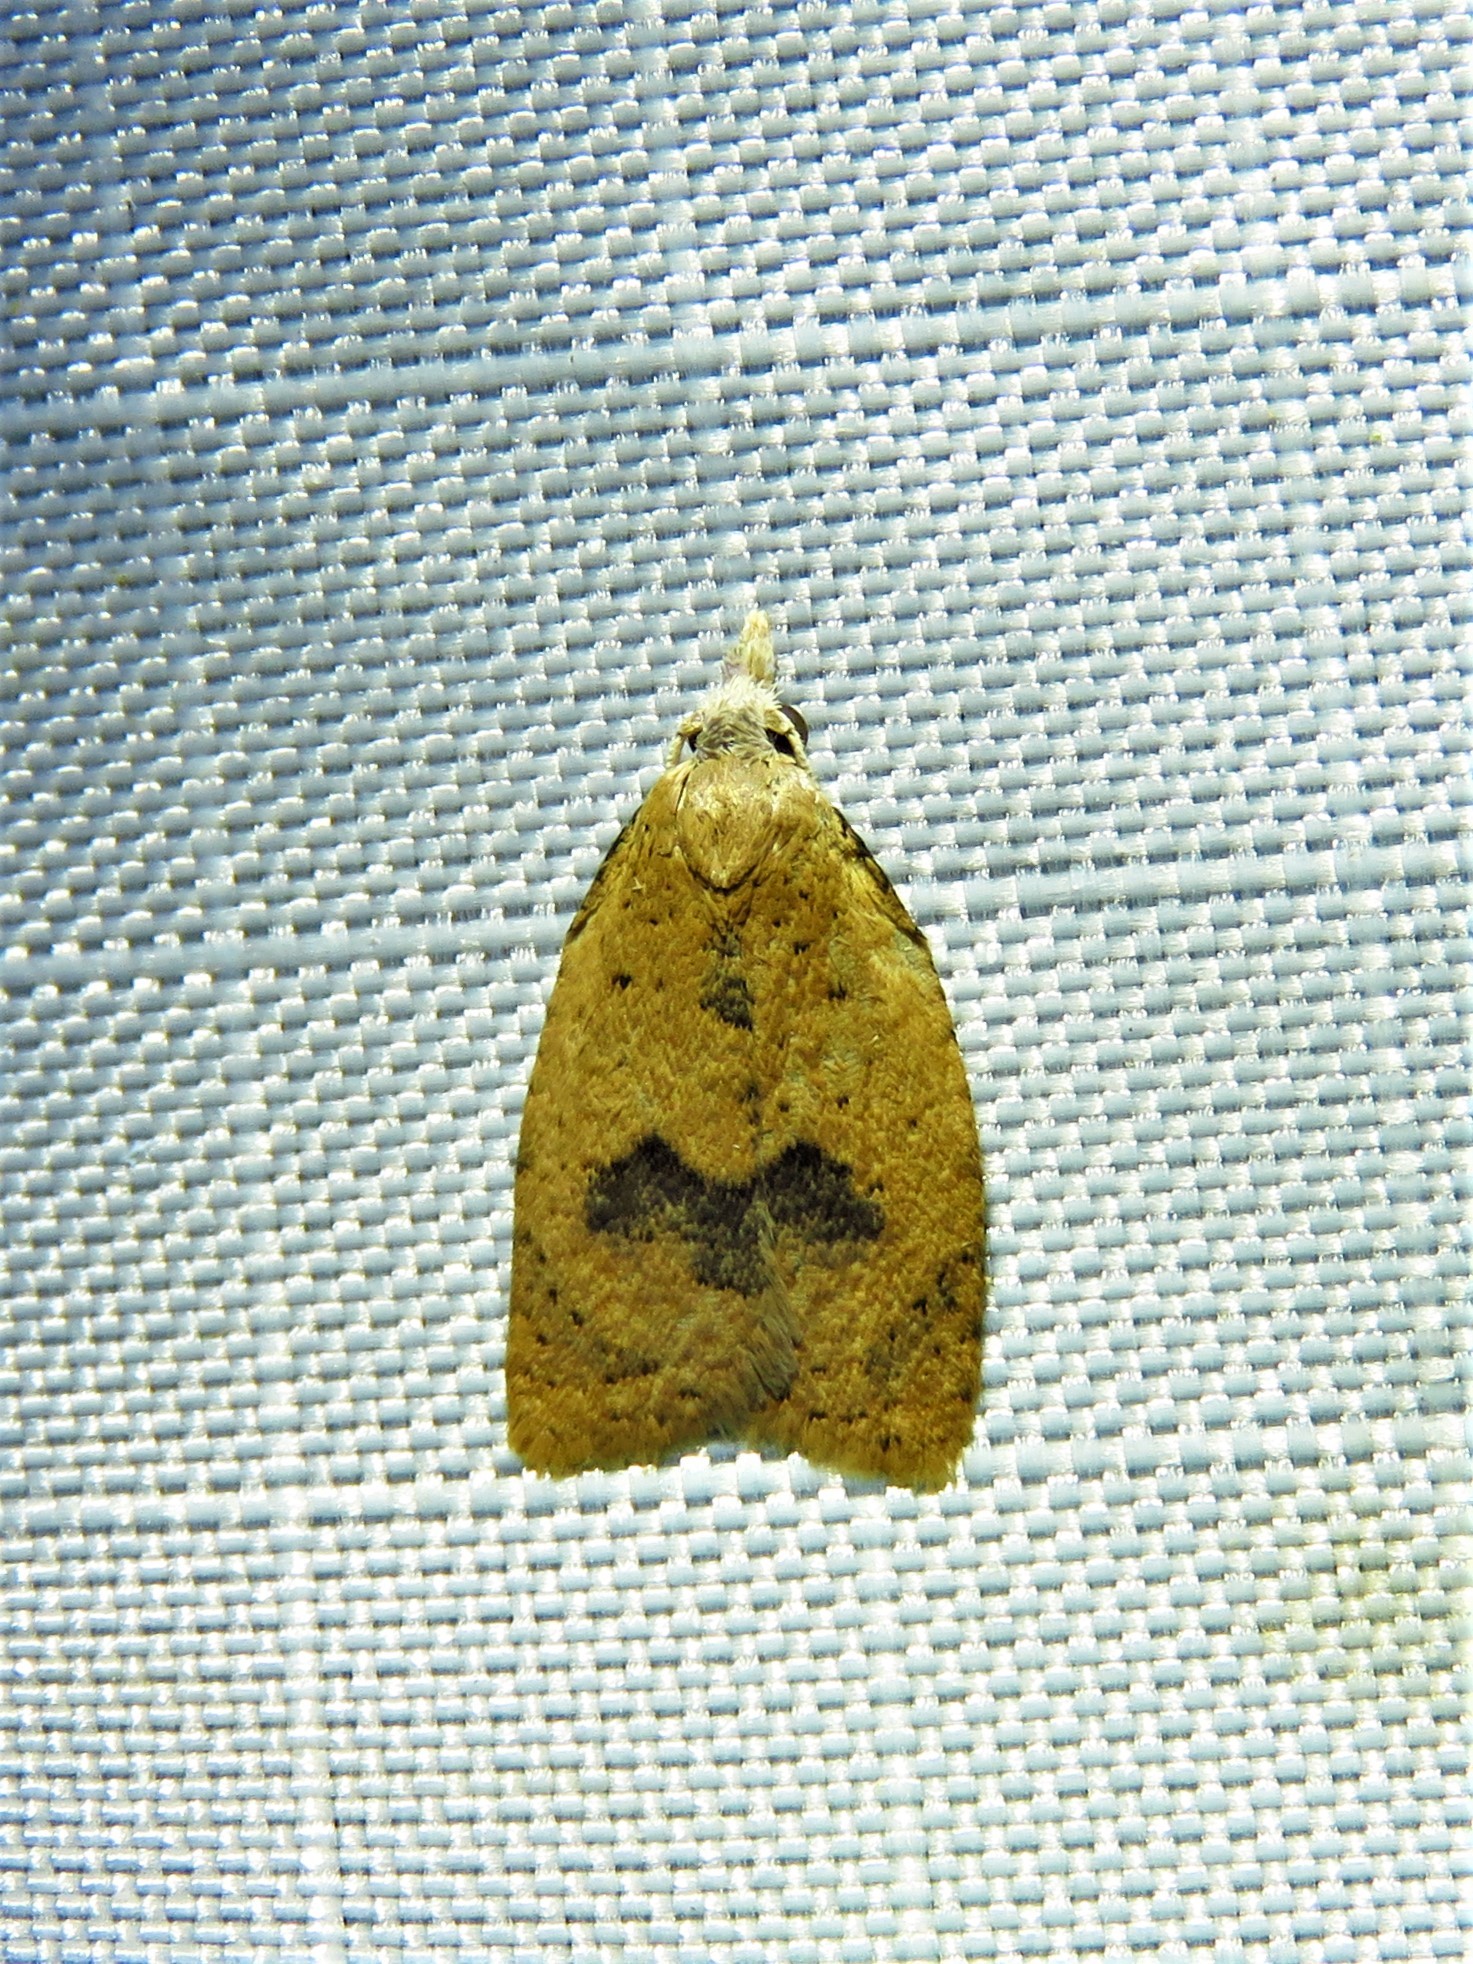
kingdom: Animalia
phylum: Arthropoda
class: Insecta
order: Lepidoptera
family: Tortricidae
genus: Sparganothoides
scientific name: Sparganothoides lentiginosana
